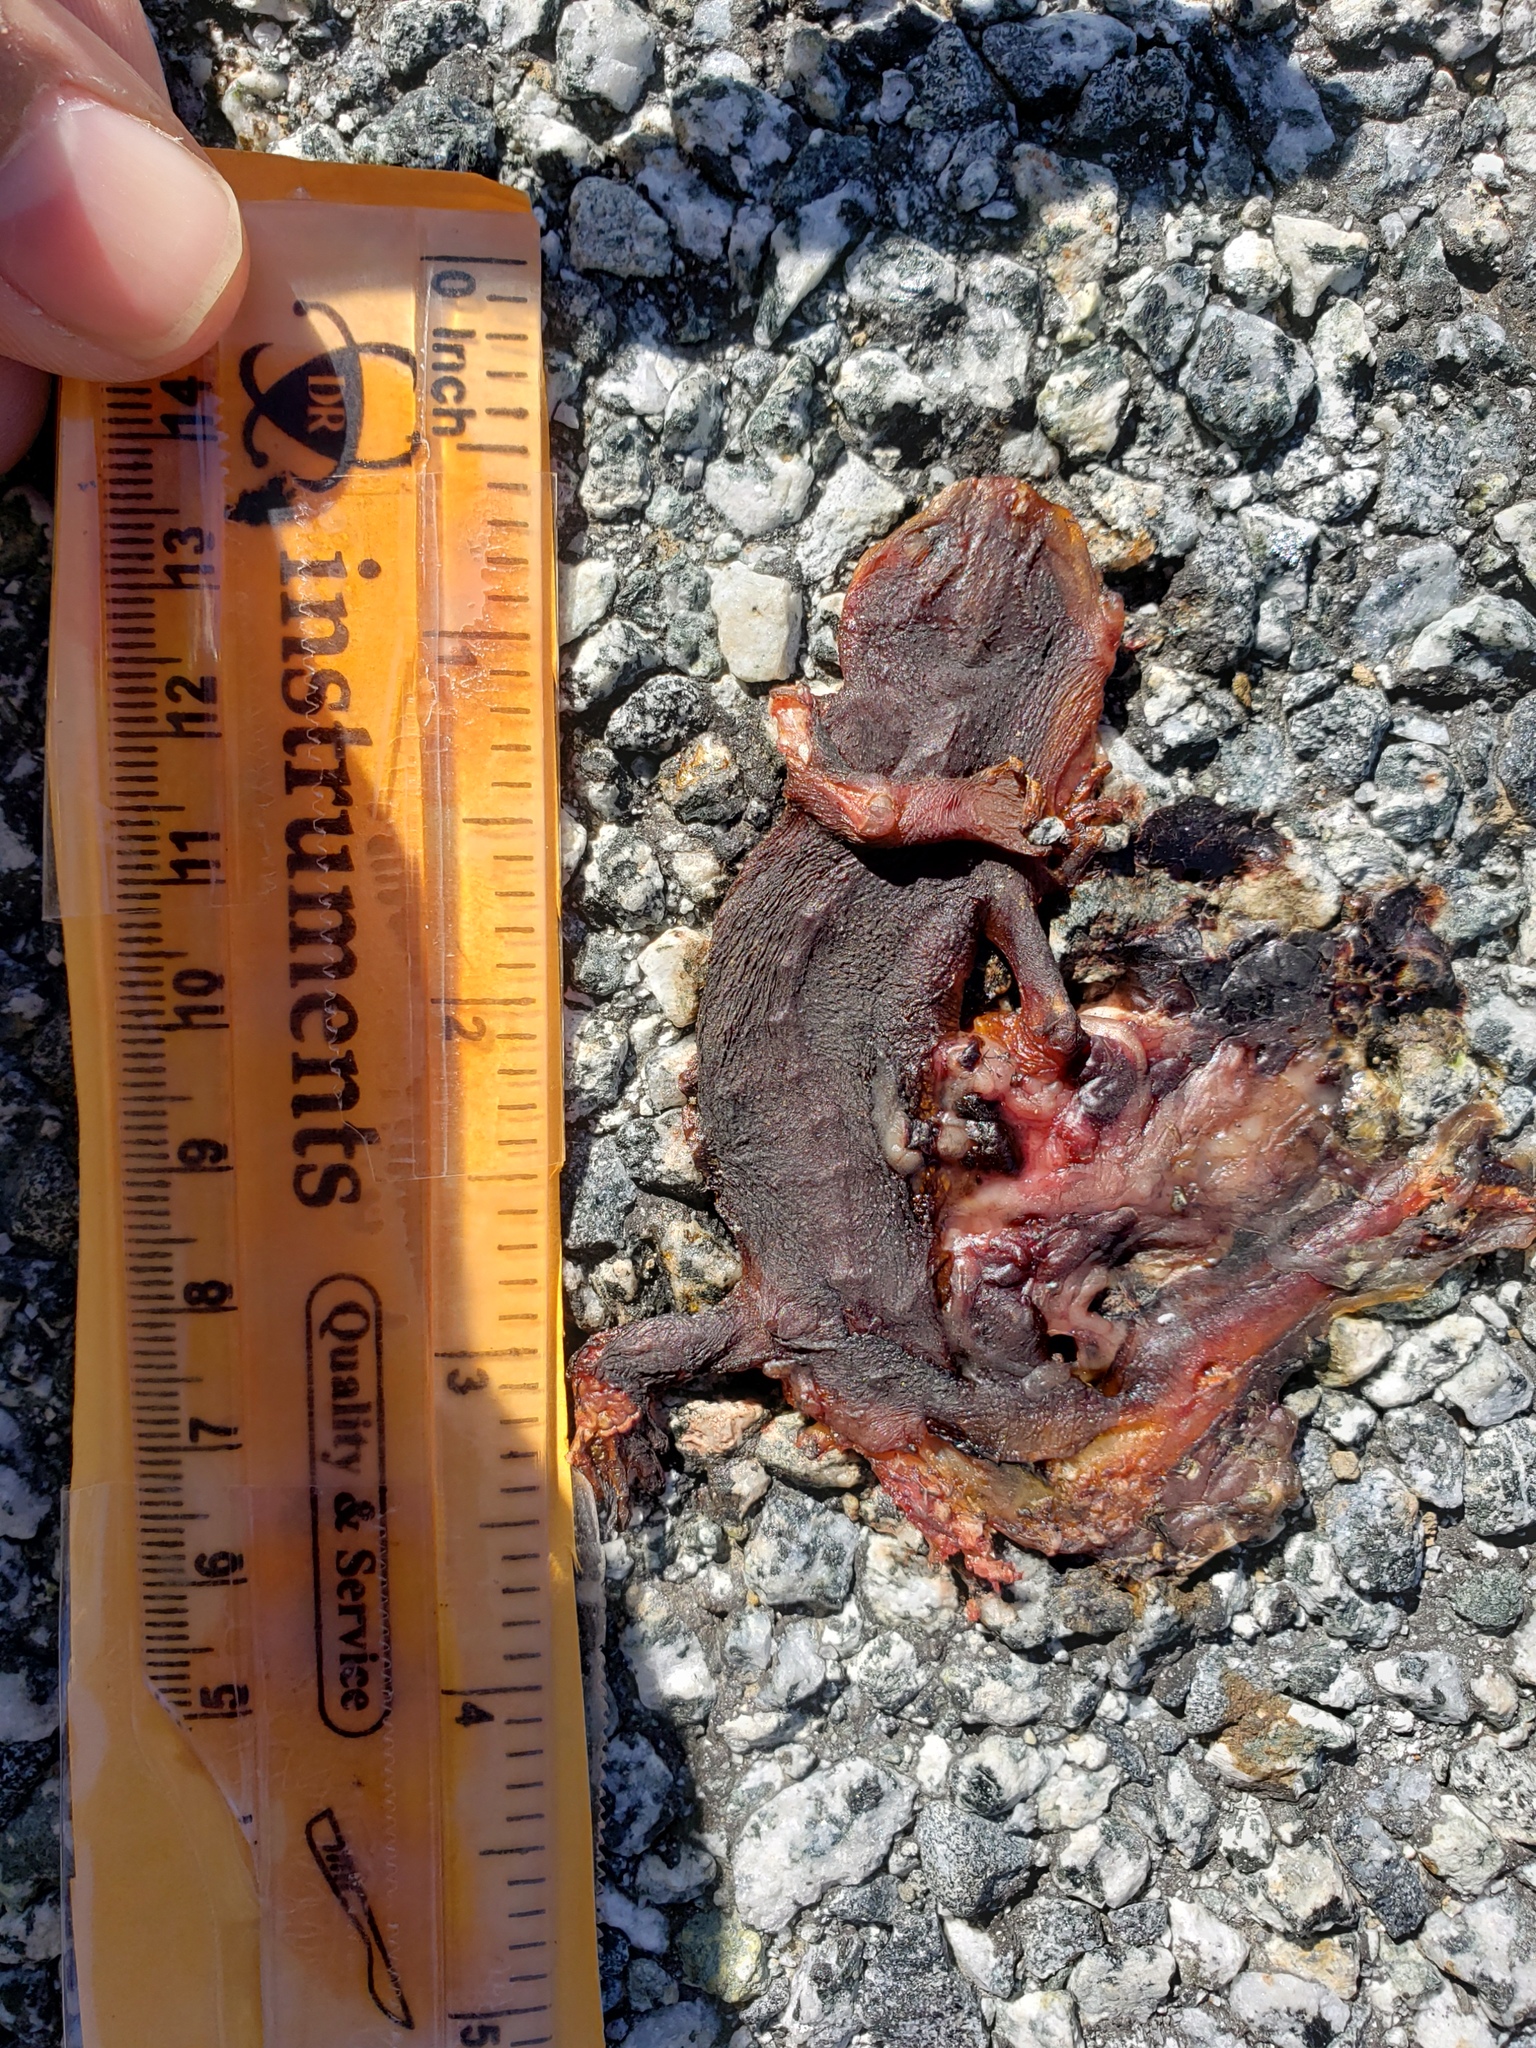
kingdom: Animalia
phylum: Chordata
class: Amphibia
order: Caudata
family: Salamandridae
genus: Taricha
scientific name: Taricha
